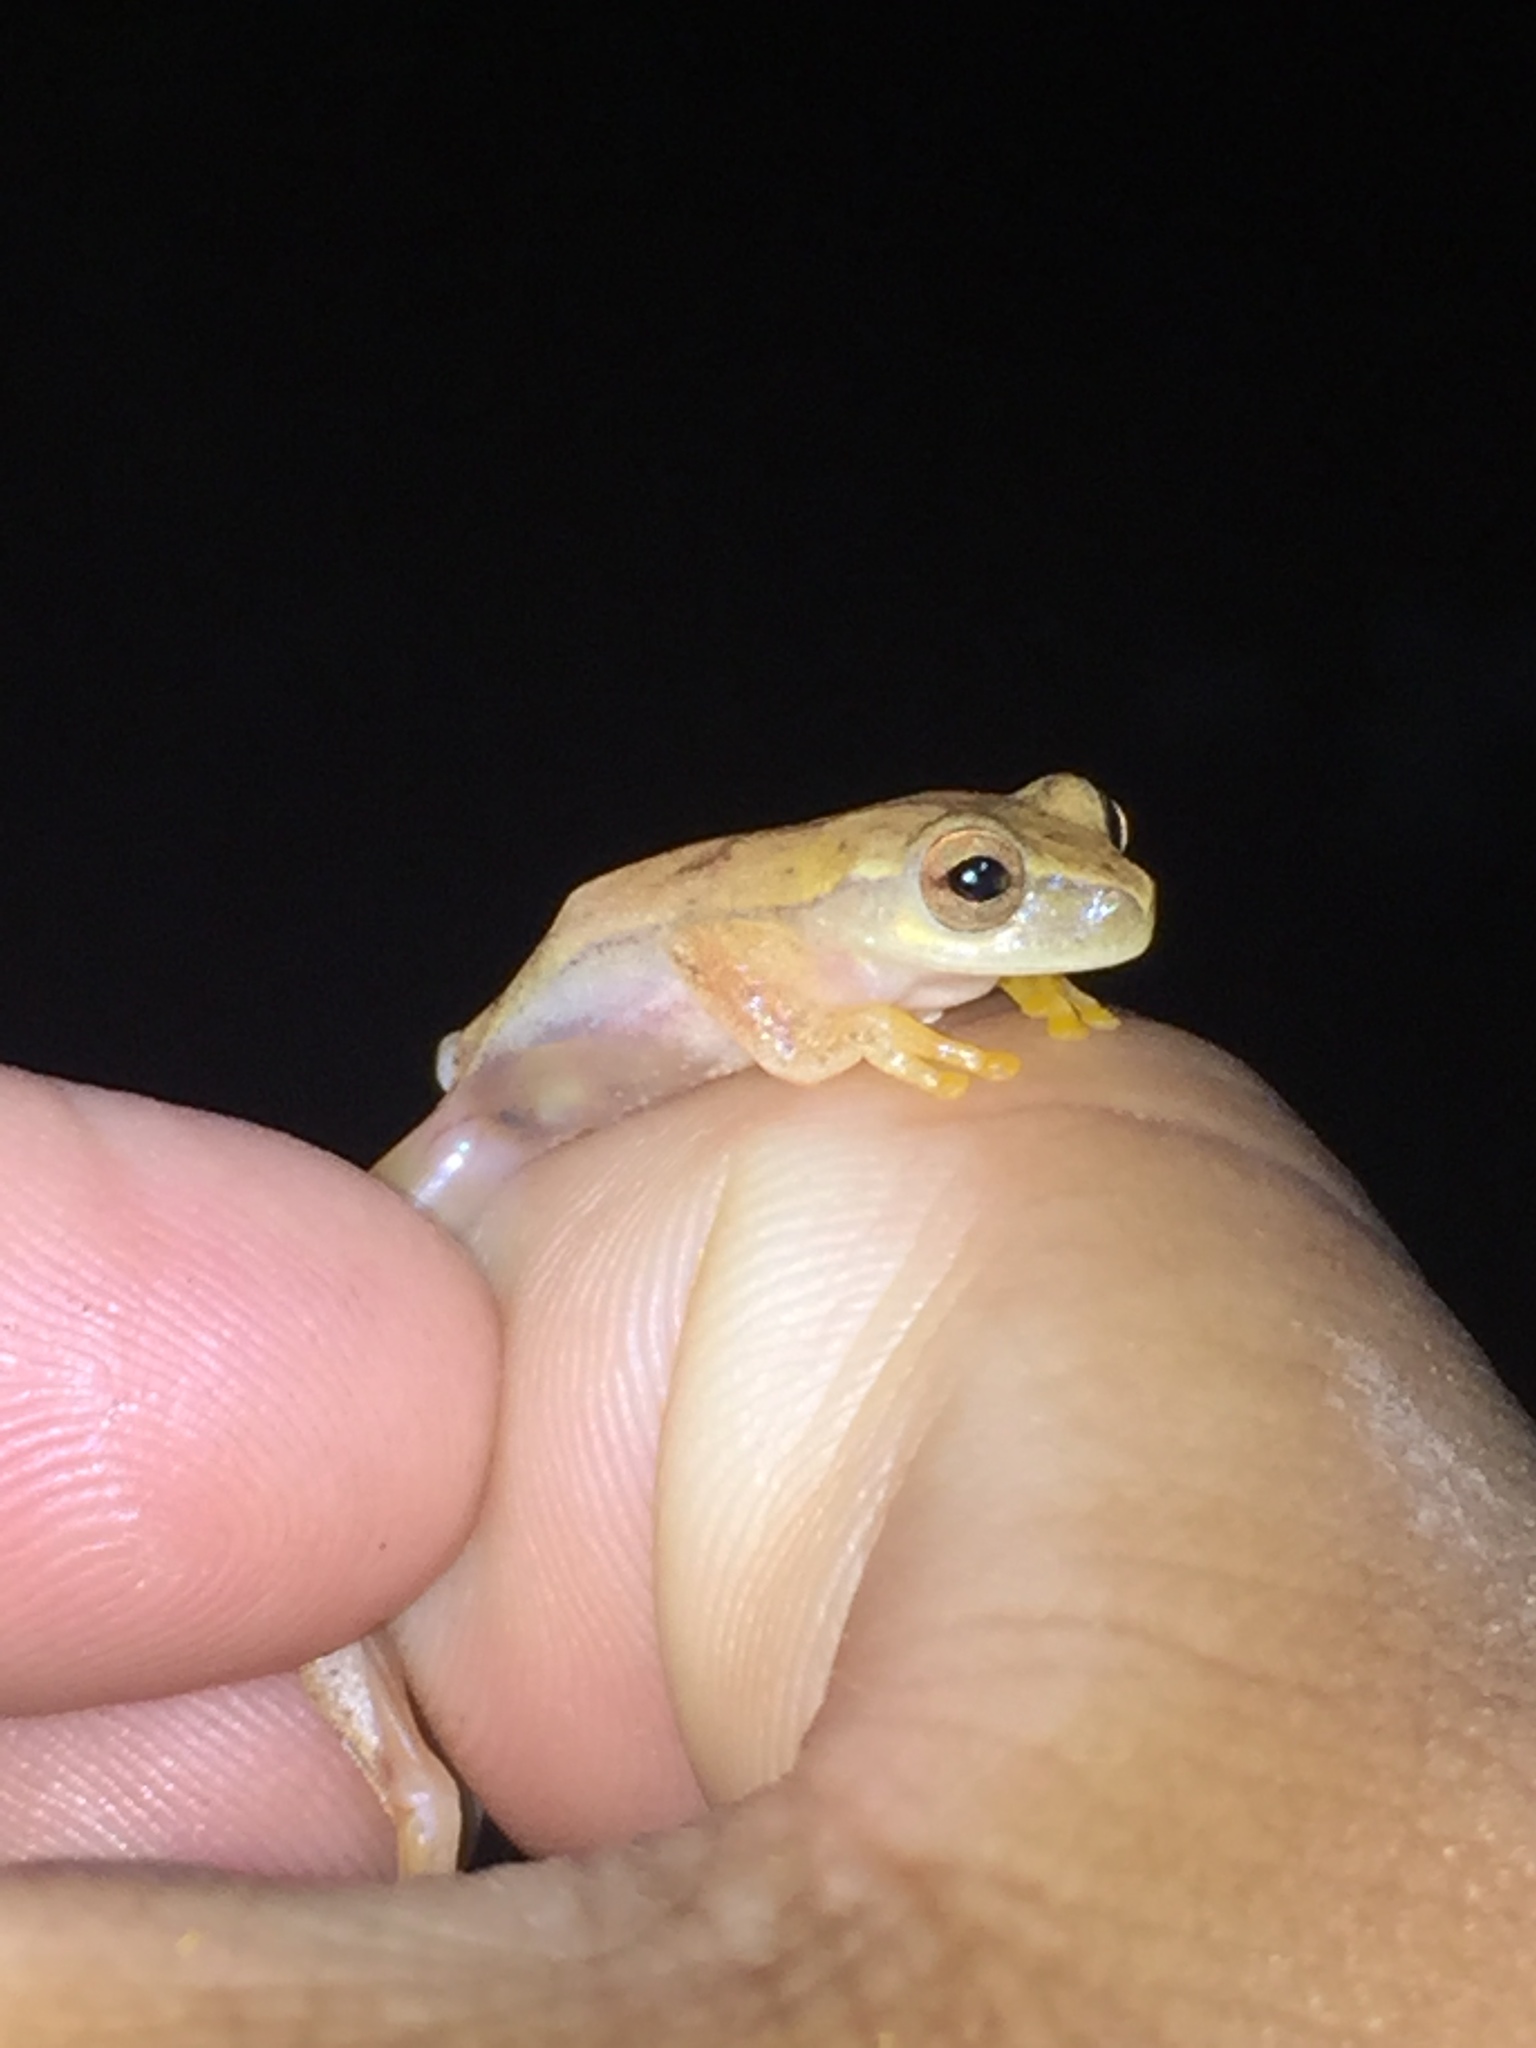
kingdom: Animalia
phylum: Chordata
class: Amphibia
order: Anura
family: Hylidae
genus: Dendropsophus
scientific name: Dendropsophus microcephalus
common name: Small-headed treefrog
